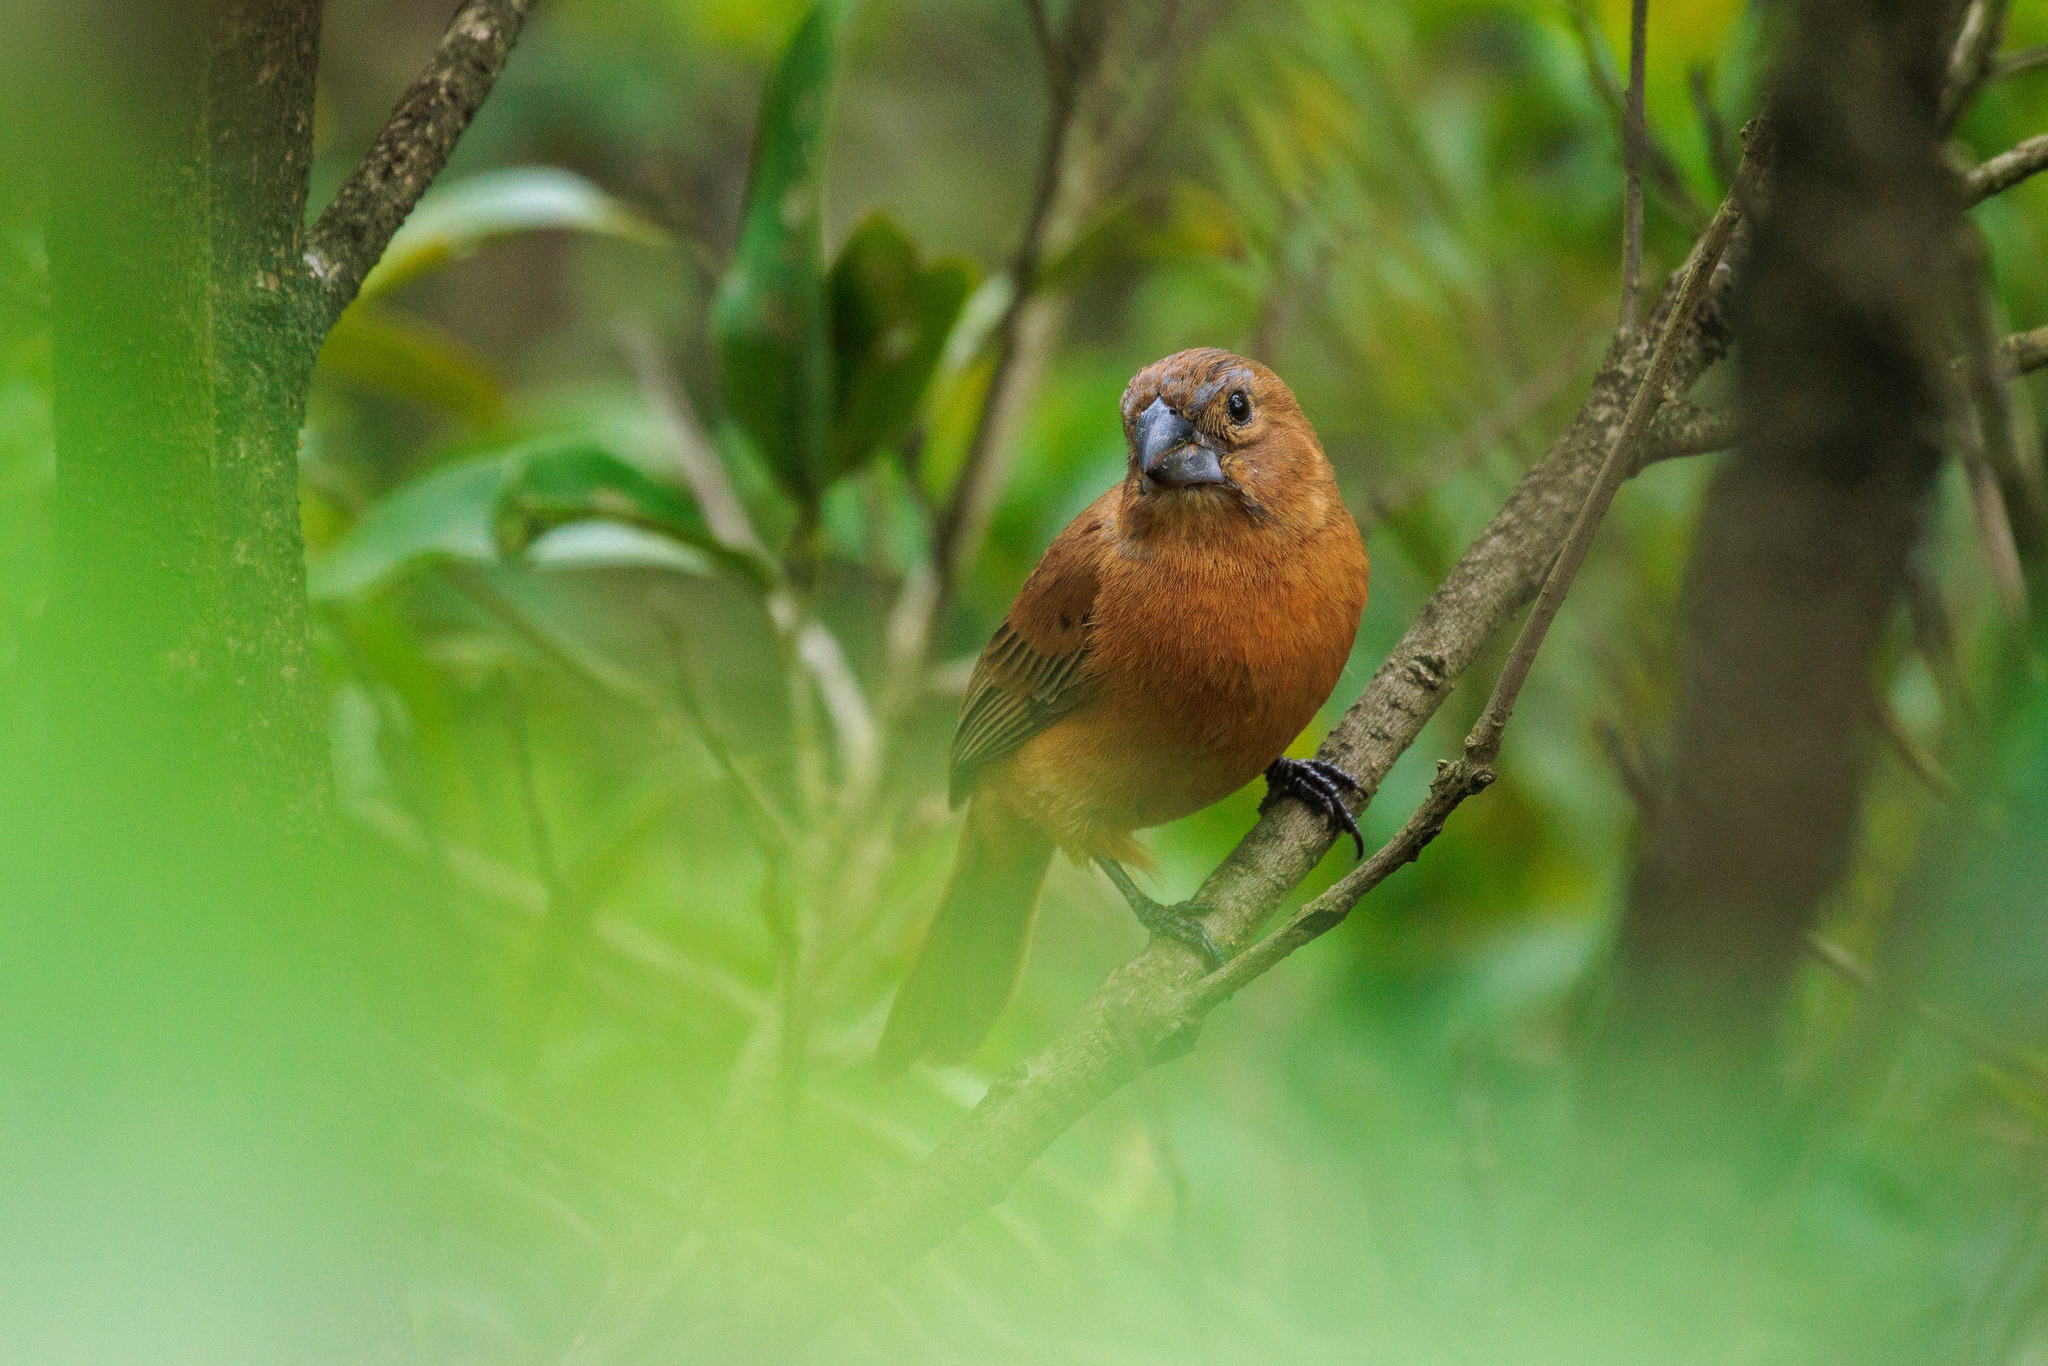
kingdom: Animalia
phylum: Chordata
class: Aves
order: Passeriformes
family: Cardinalidae
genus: Cyanoloxia
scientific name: Cyanoloxia brissonii
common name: Ultramarine grosbeak
